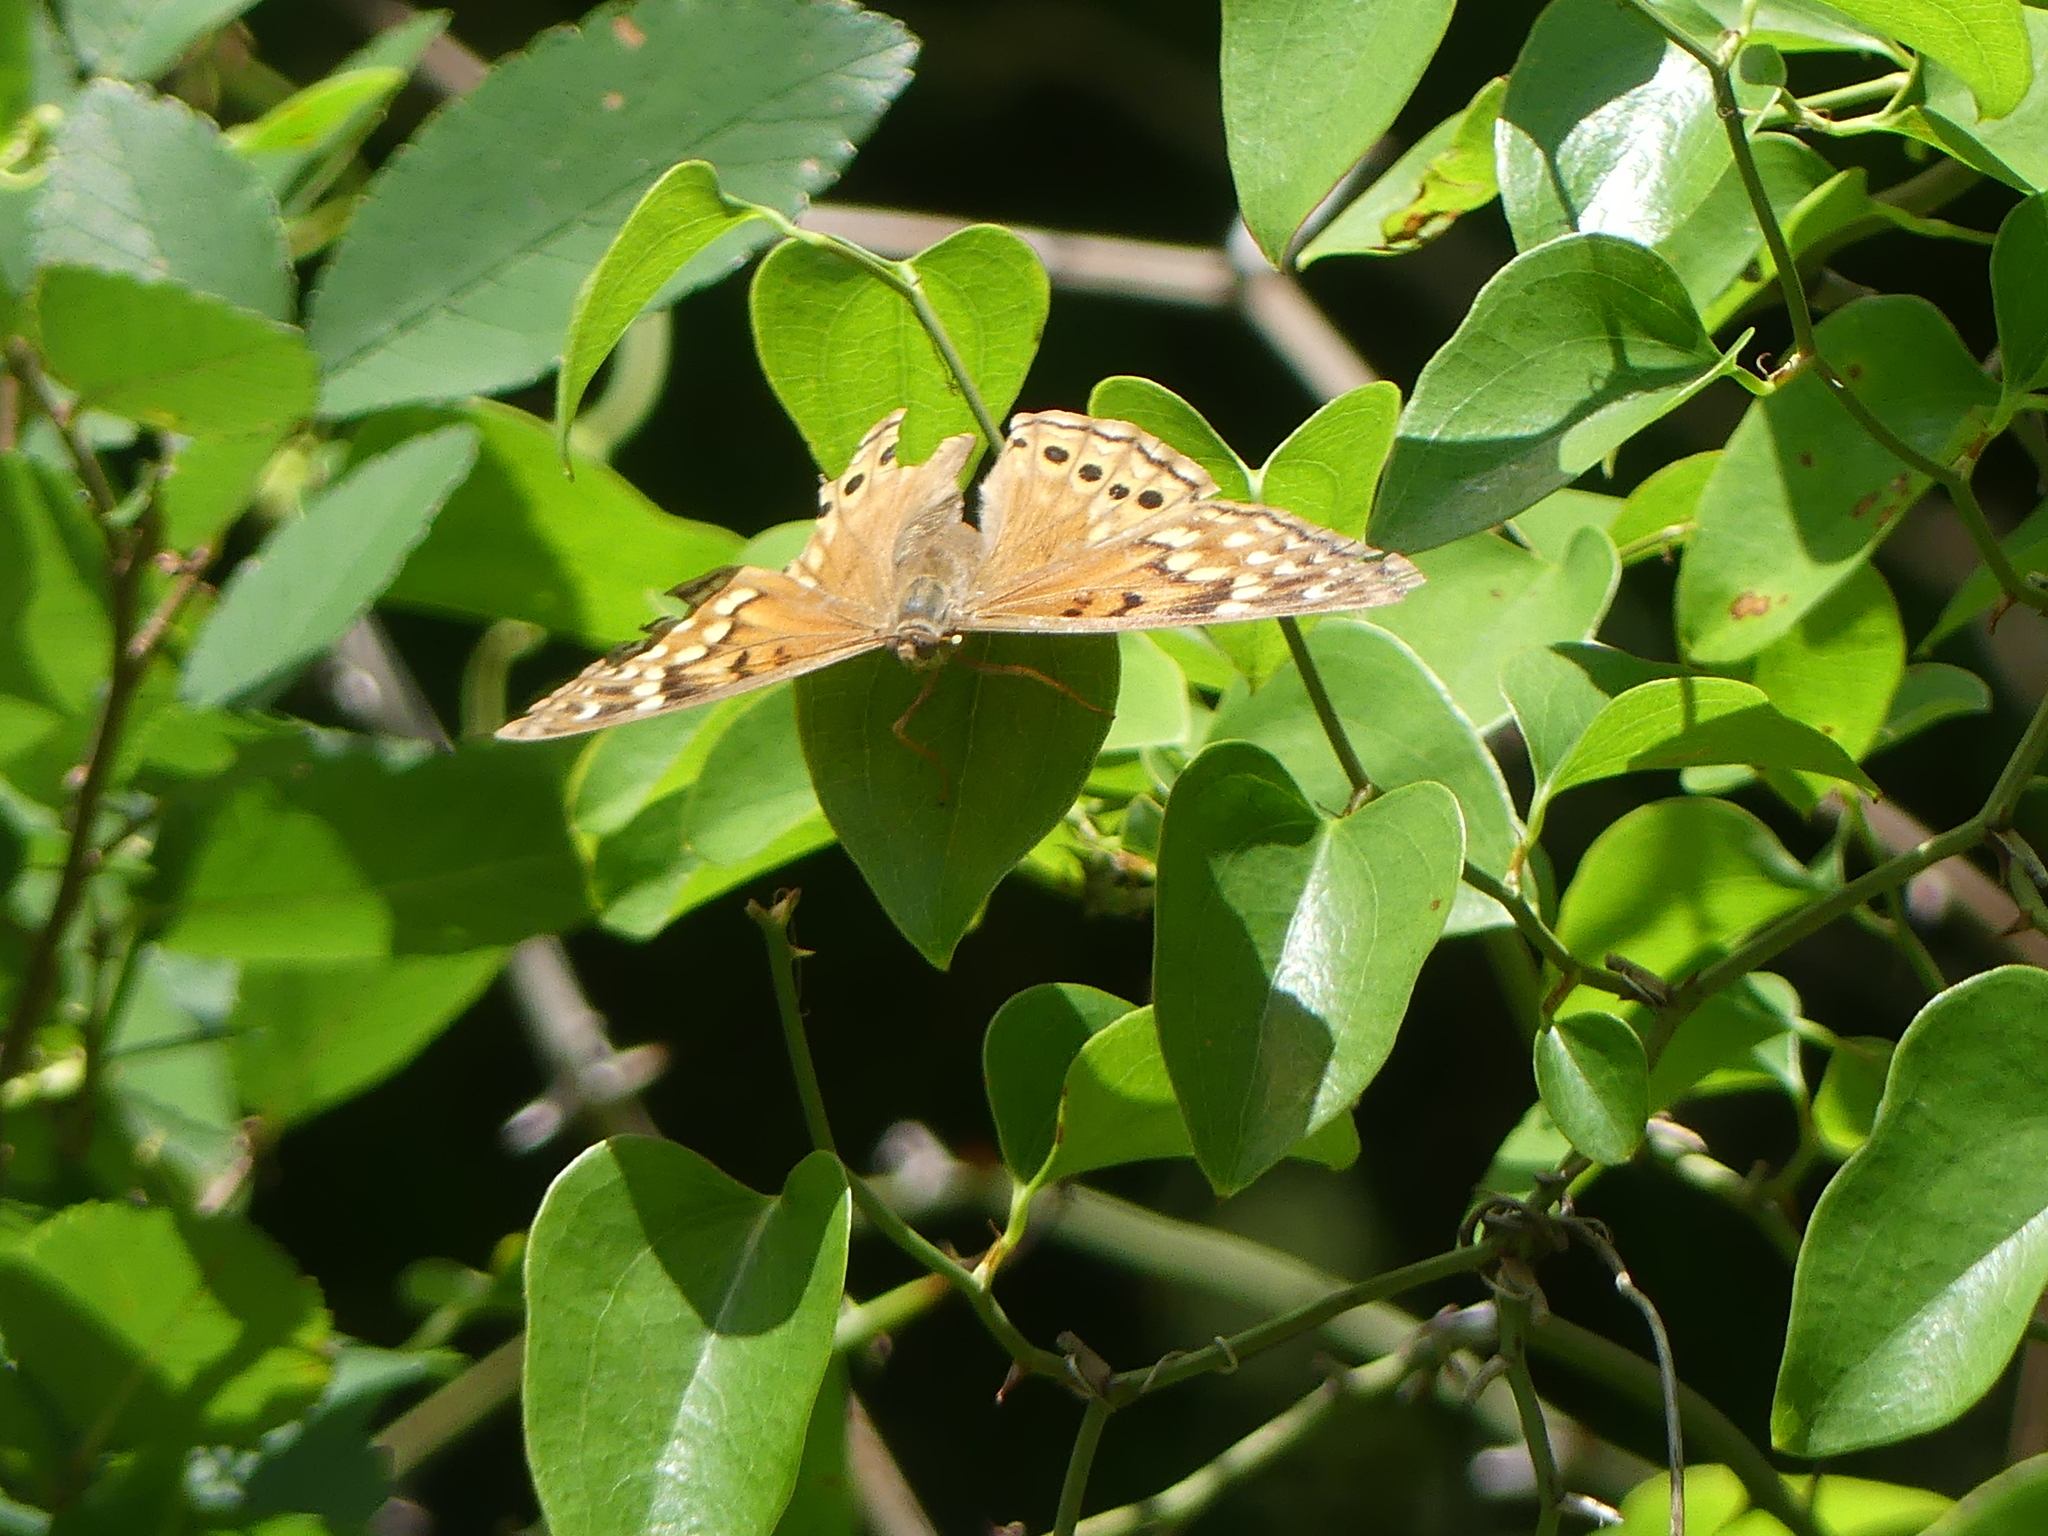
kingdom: Animalia
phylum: Arthropoda
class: Insecta
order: Lepidoptera
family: Nymphalidae
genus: Asterocampa
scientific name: Asterocampa celtis
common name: Hackberry emperor
